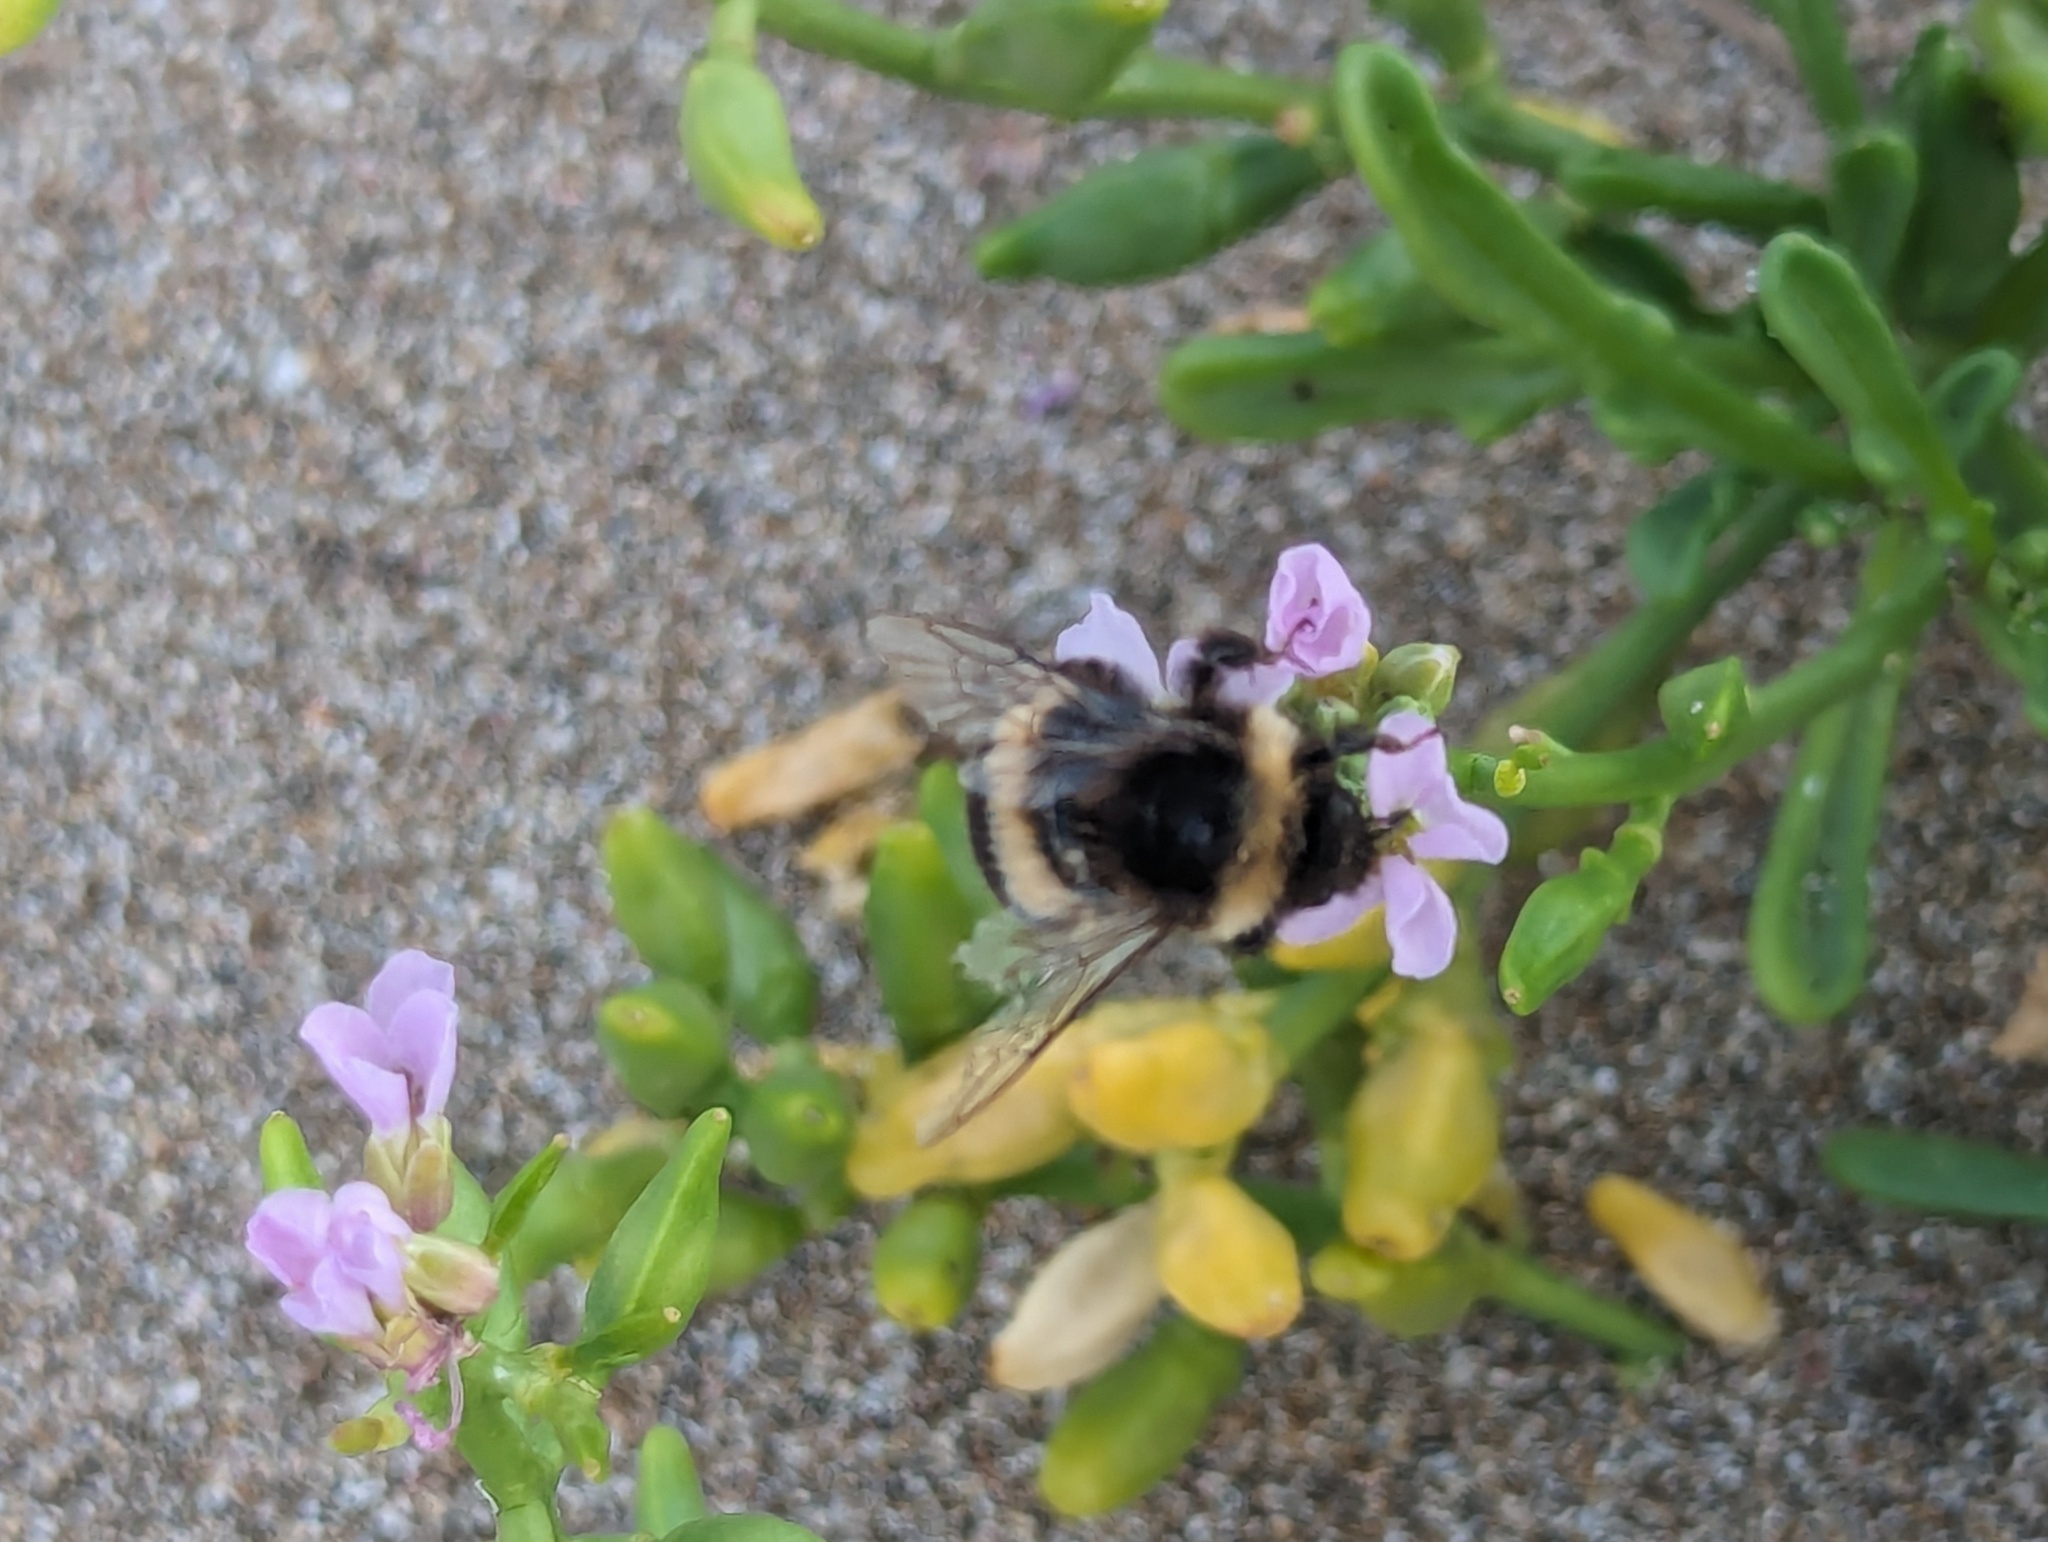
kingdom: Animalia
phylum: Arthropoda
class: Insecta
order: Hymenoptera
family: Apidae
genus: Bombus
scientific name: Bombus terrestris
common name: Buff-tailed bumblebee
